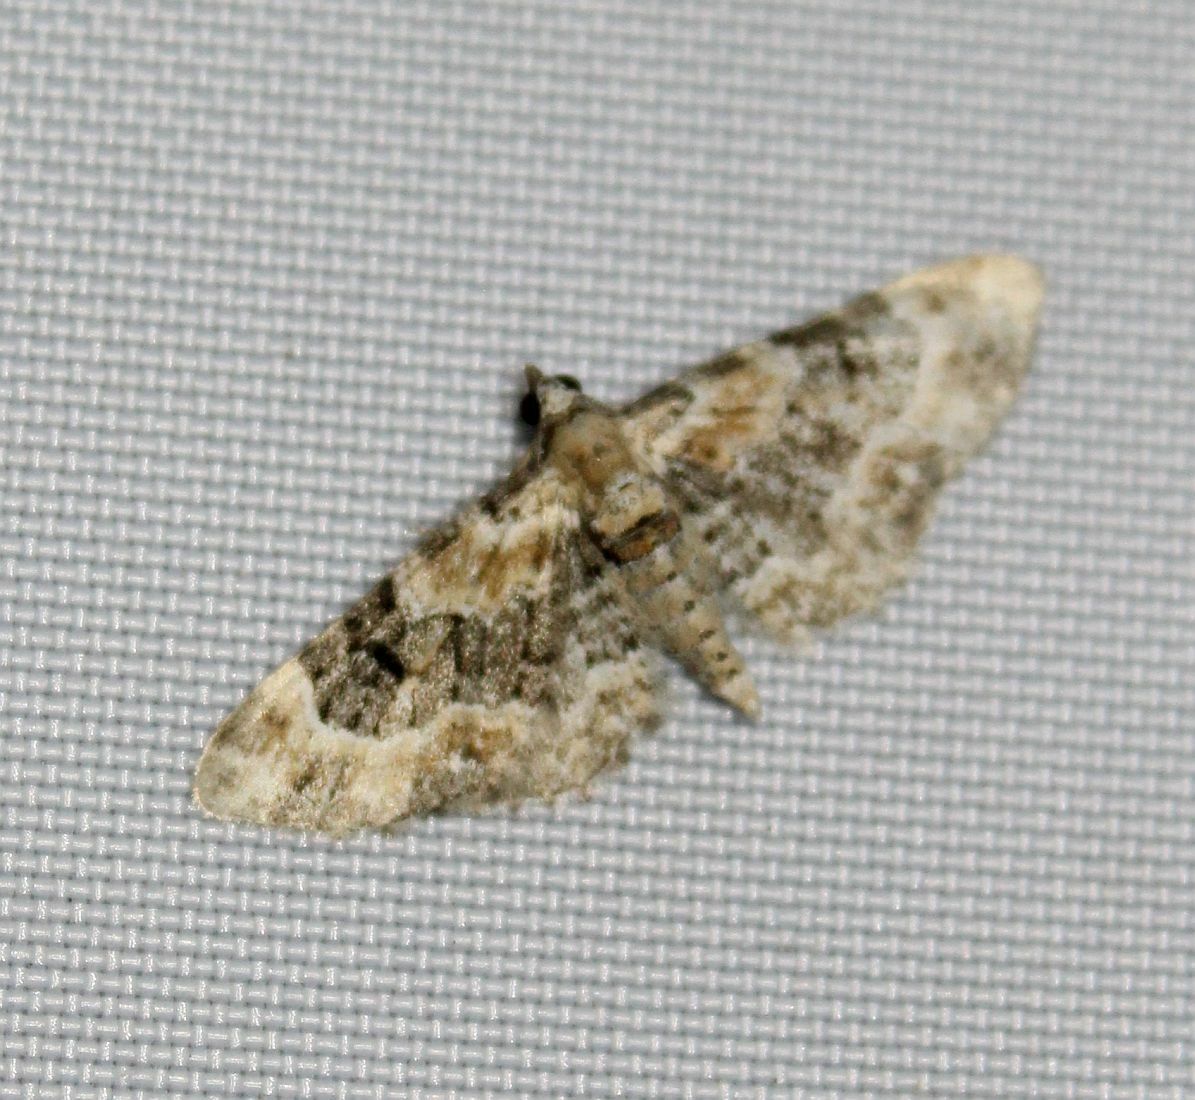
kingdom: Animalia
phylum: Arthropoda
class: Insecta
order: Lepidoptera
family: Geometridae
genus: Eupithecia
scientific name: Eupithecia pulchellata
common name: Foxglove pug
